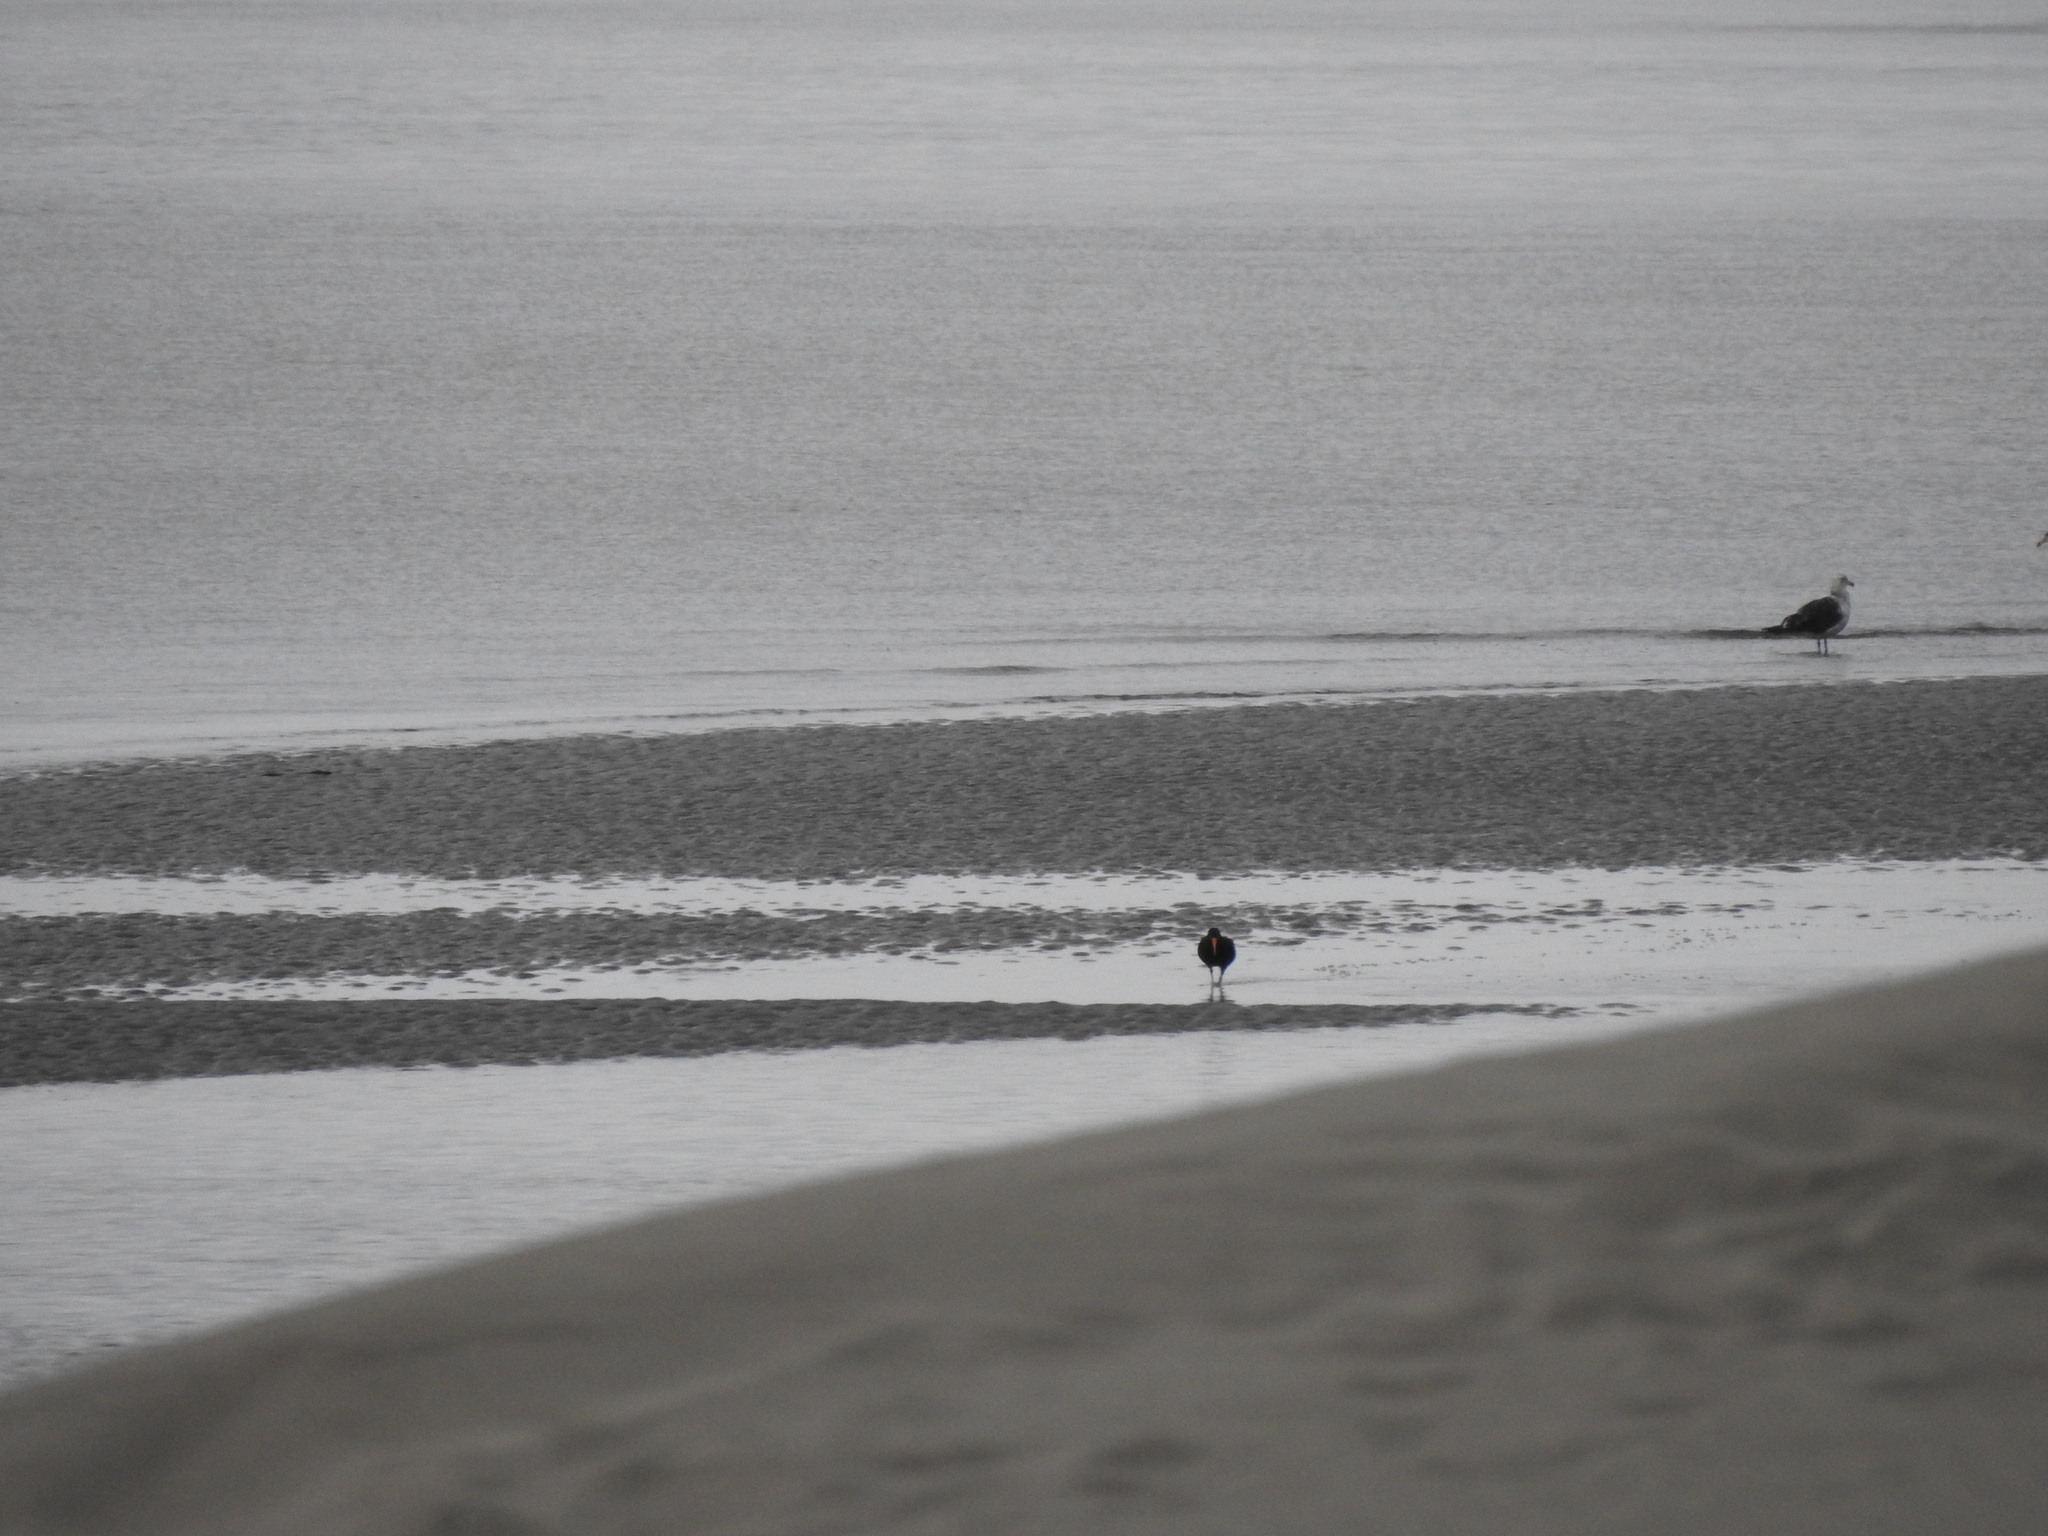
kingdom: Animalia
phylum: Chordata
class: Aves
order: Charadriiformes
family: Haematopodidae
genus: Haematopus
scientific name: Haematopus unicolor
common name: Variable oystercatcher
